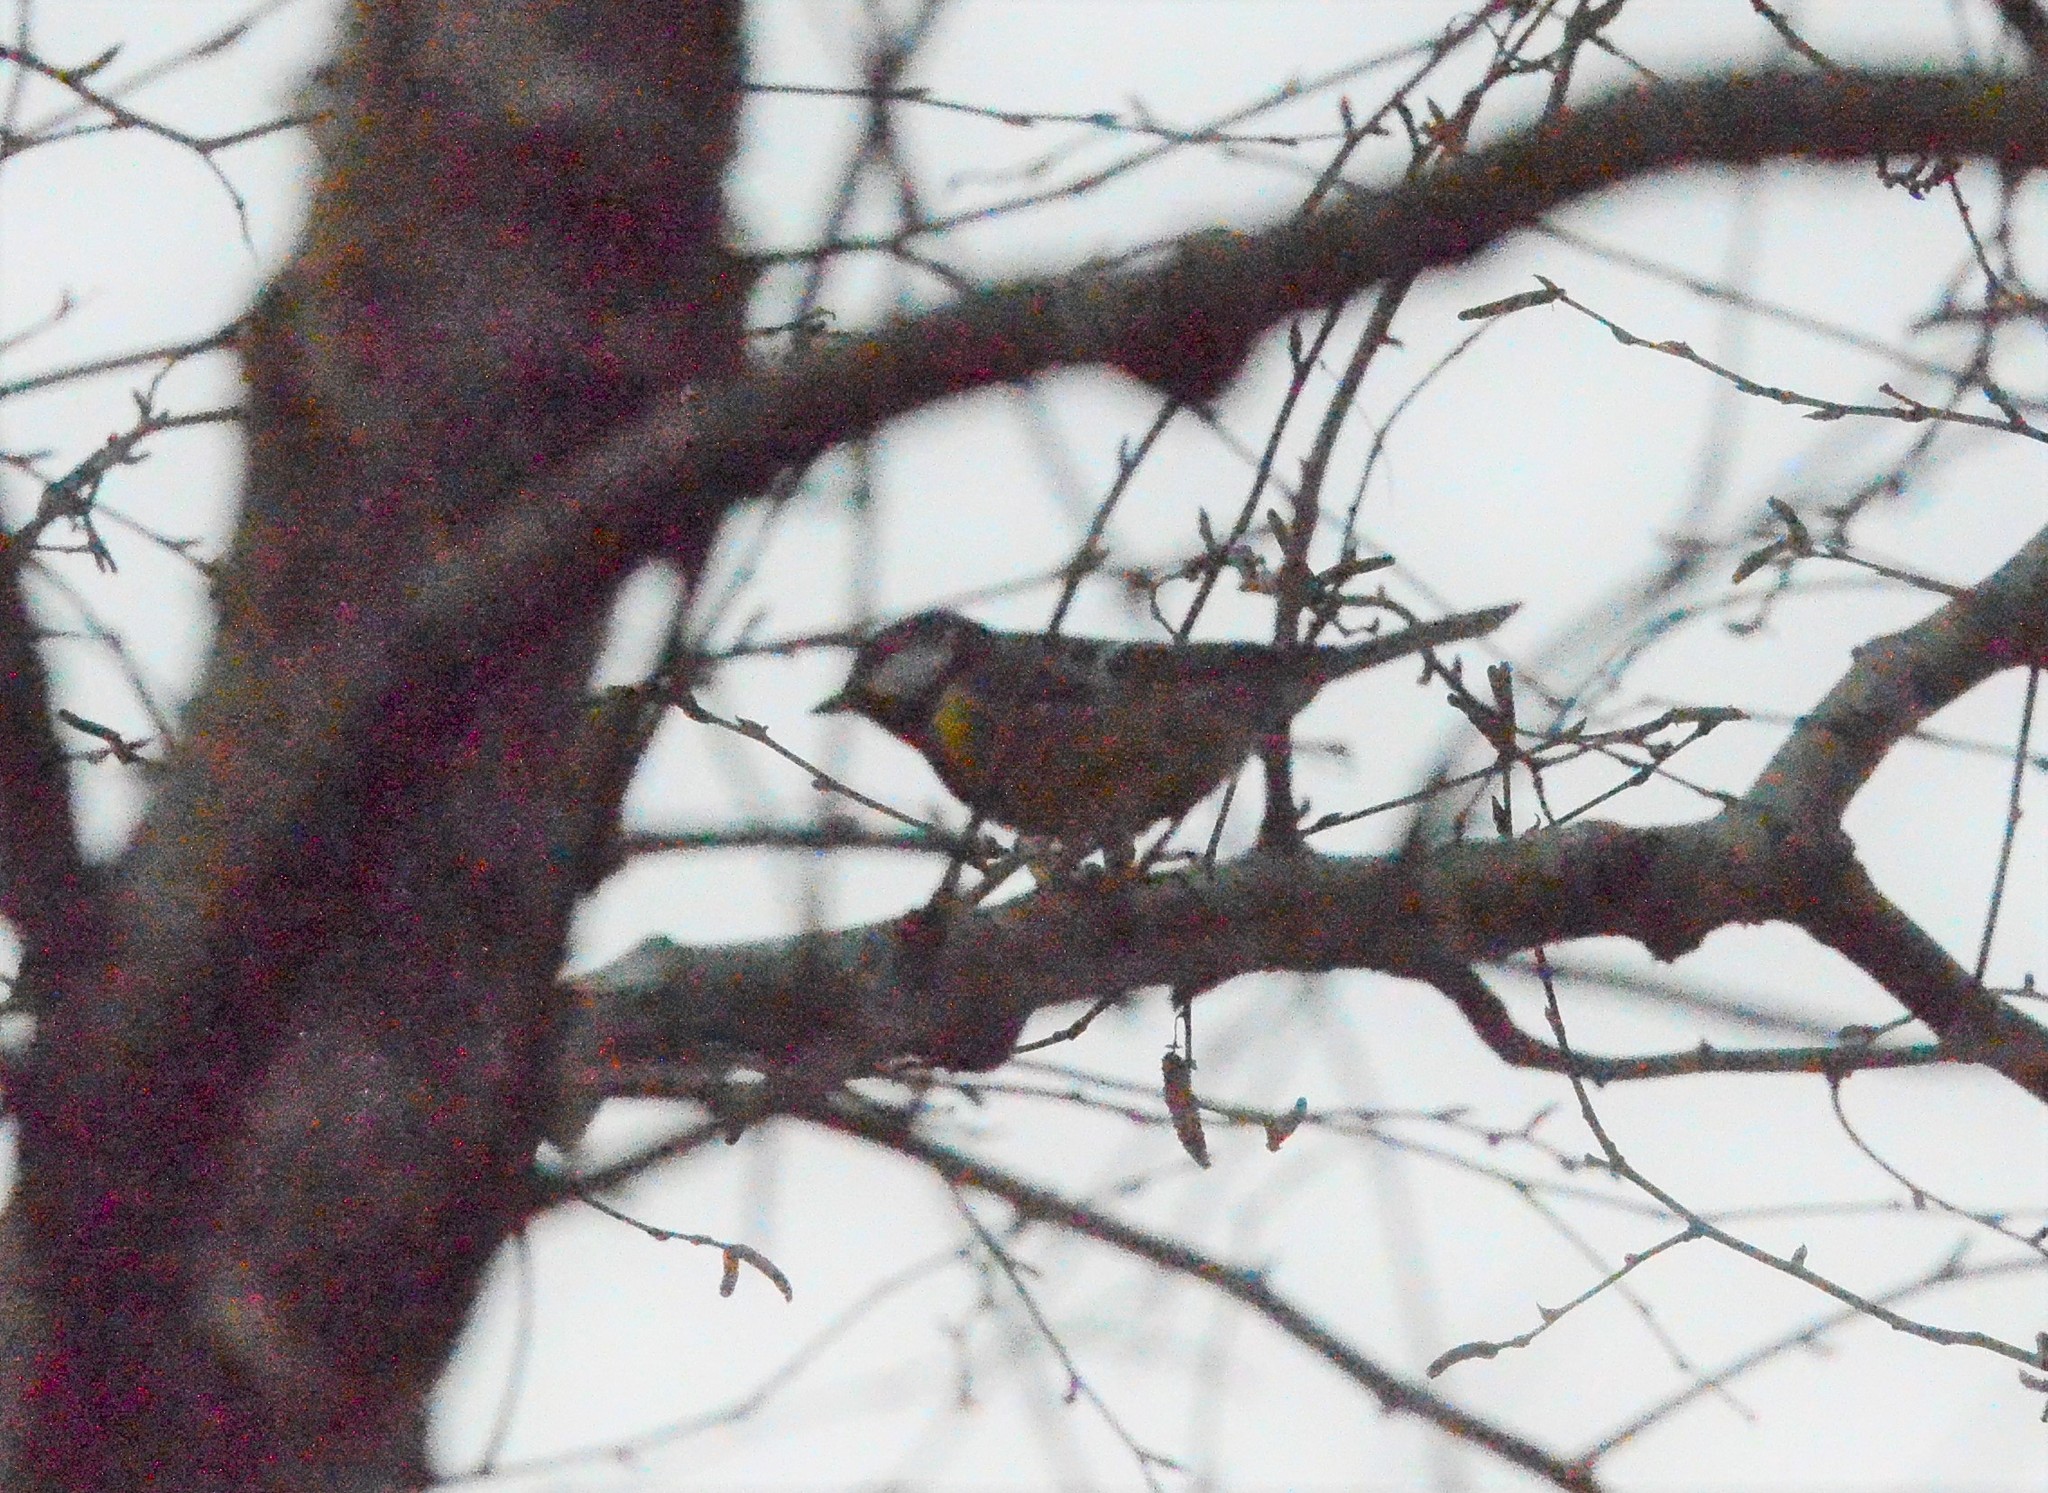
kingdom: Animalia
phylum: Chordata
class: Aves
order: Passeriformes
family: Paridae
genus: Parus
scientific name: Parus major
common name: Great tit
